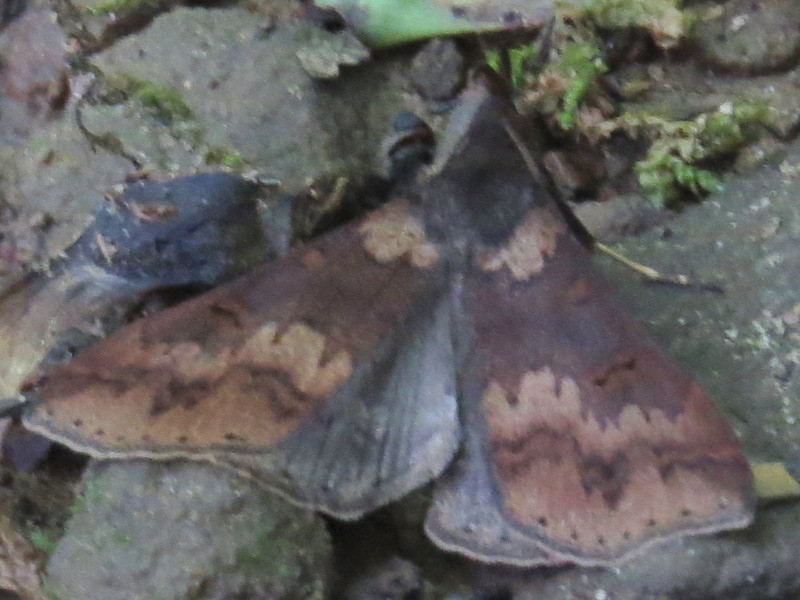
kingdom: Animalia
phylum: Arthropoda
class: Insecta
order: Lepidoptera
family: Erebidae
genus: Renia
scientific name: Renia discoloralis
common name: Discolored renia moth
